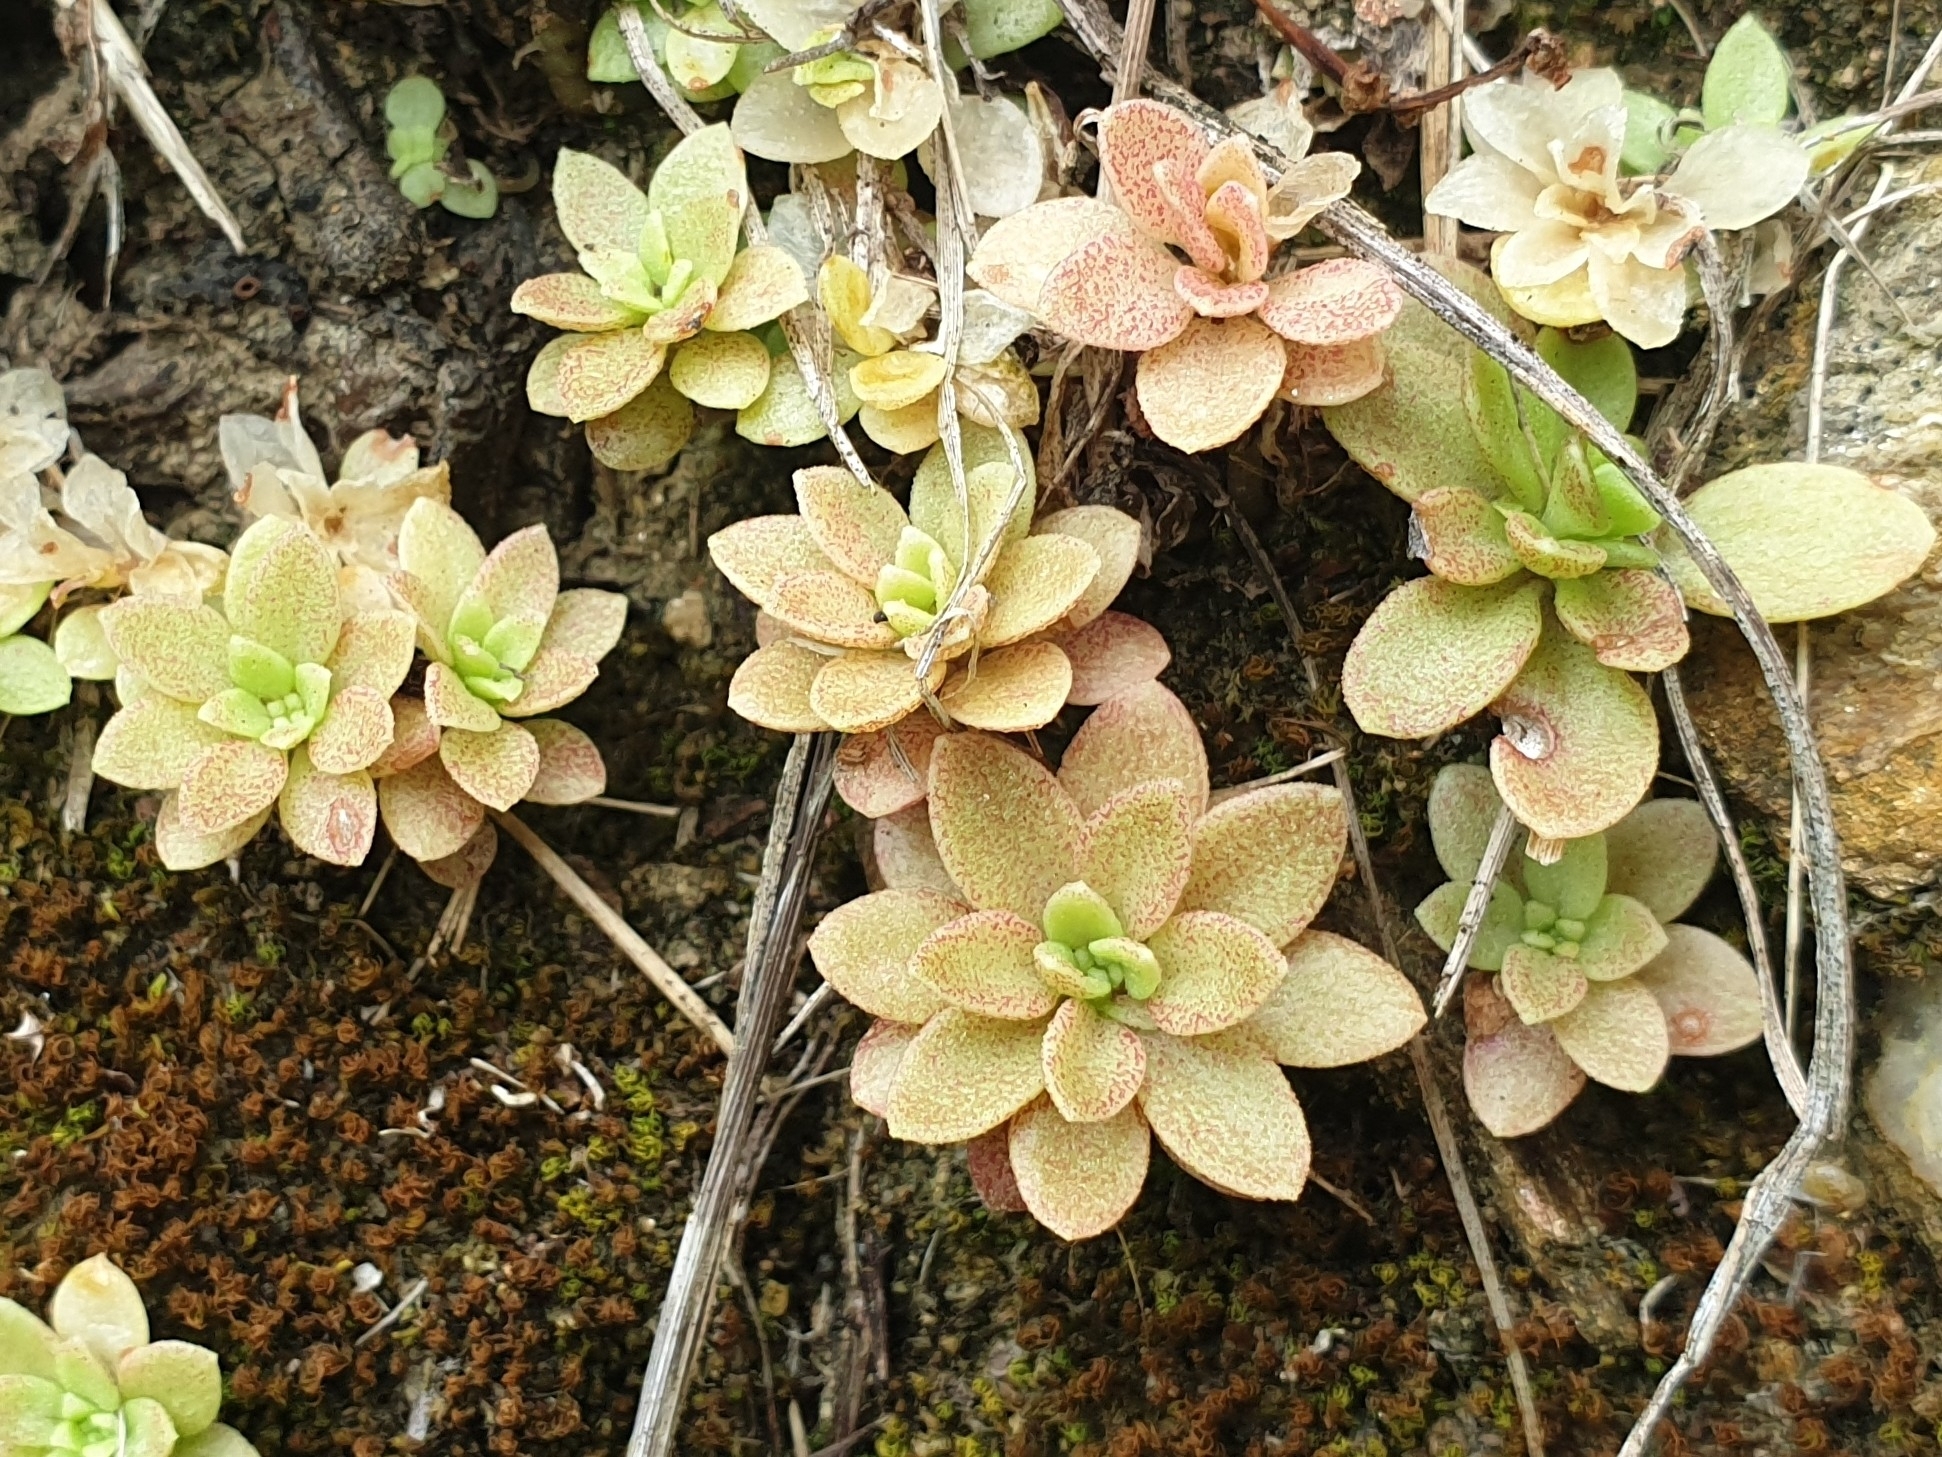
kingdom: Plantae
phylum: Tracheophyta
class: Magnoliopsida
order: Saxifragales
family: Crassulaceae
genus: Sedum
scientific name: Sedum cepaea
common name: Pink stonecrop
